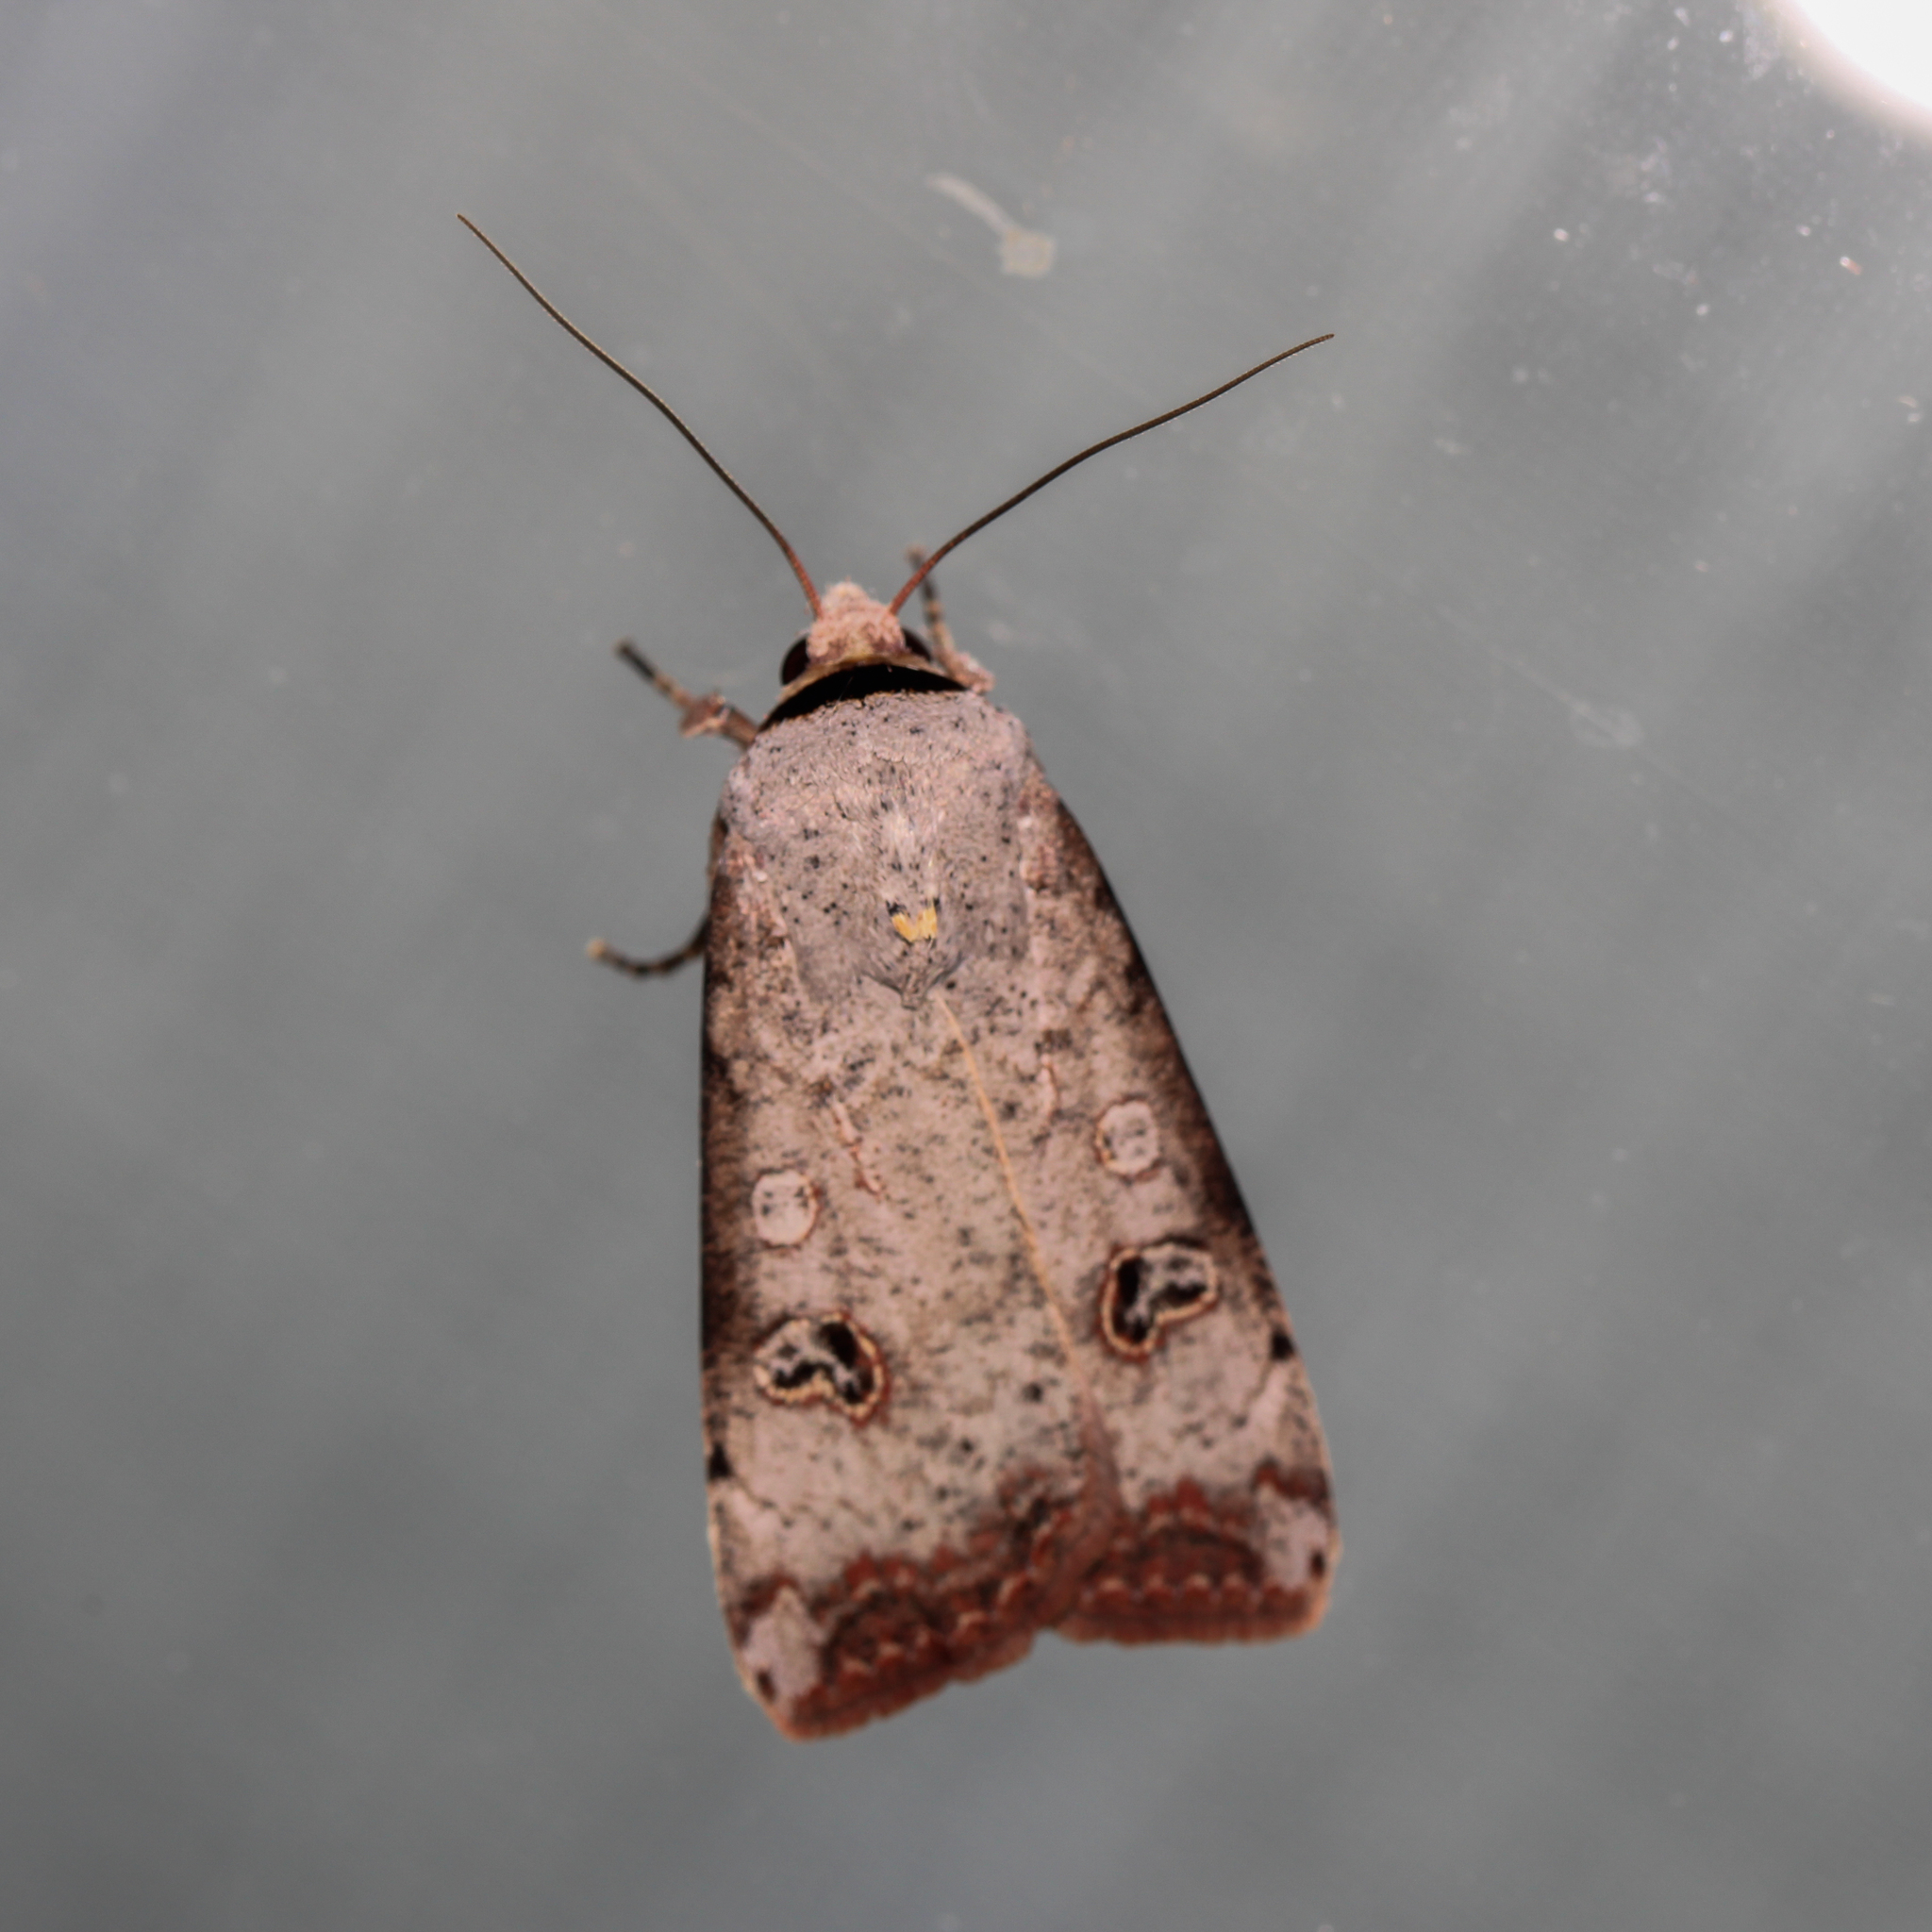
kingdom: Animalia
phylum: Arthropoda
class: Insecta
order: Lepidoptera
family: Noctuidae
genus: Anicla
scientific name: Anicla infecta
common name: Green cutworm
